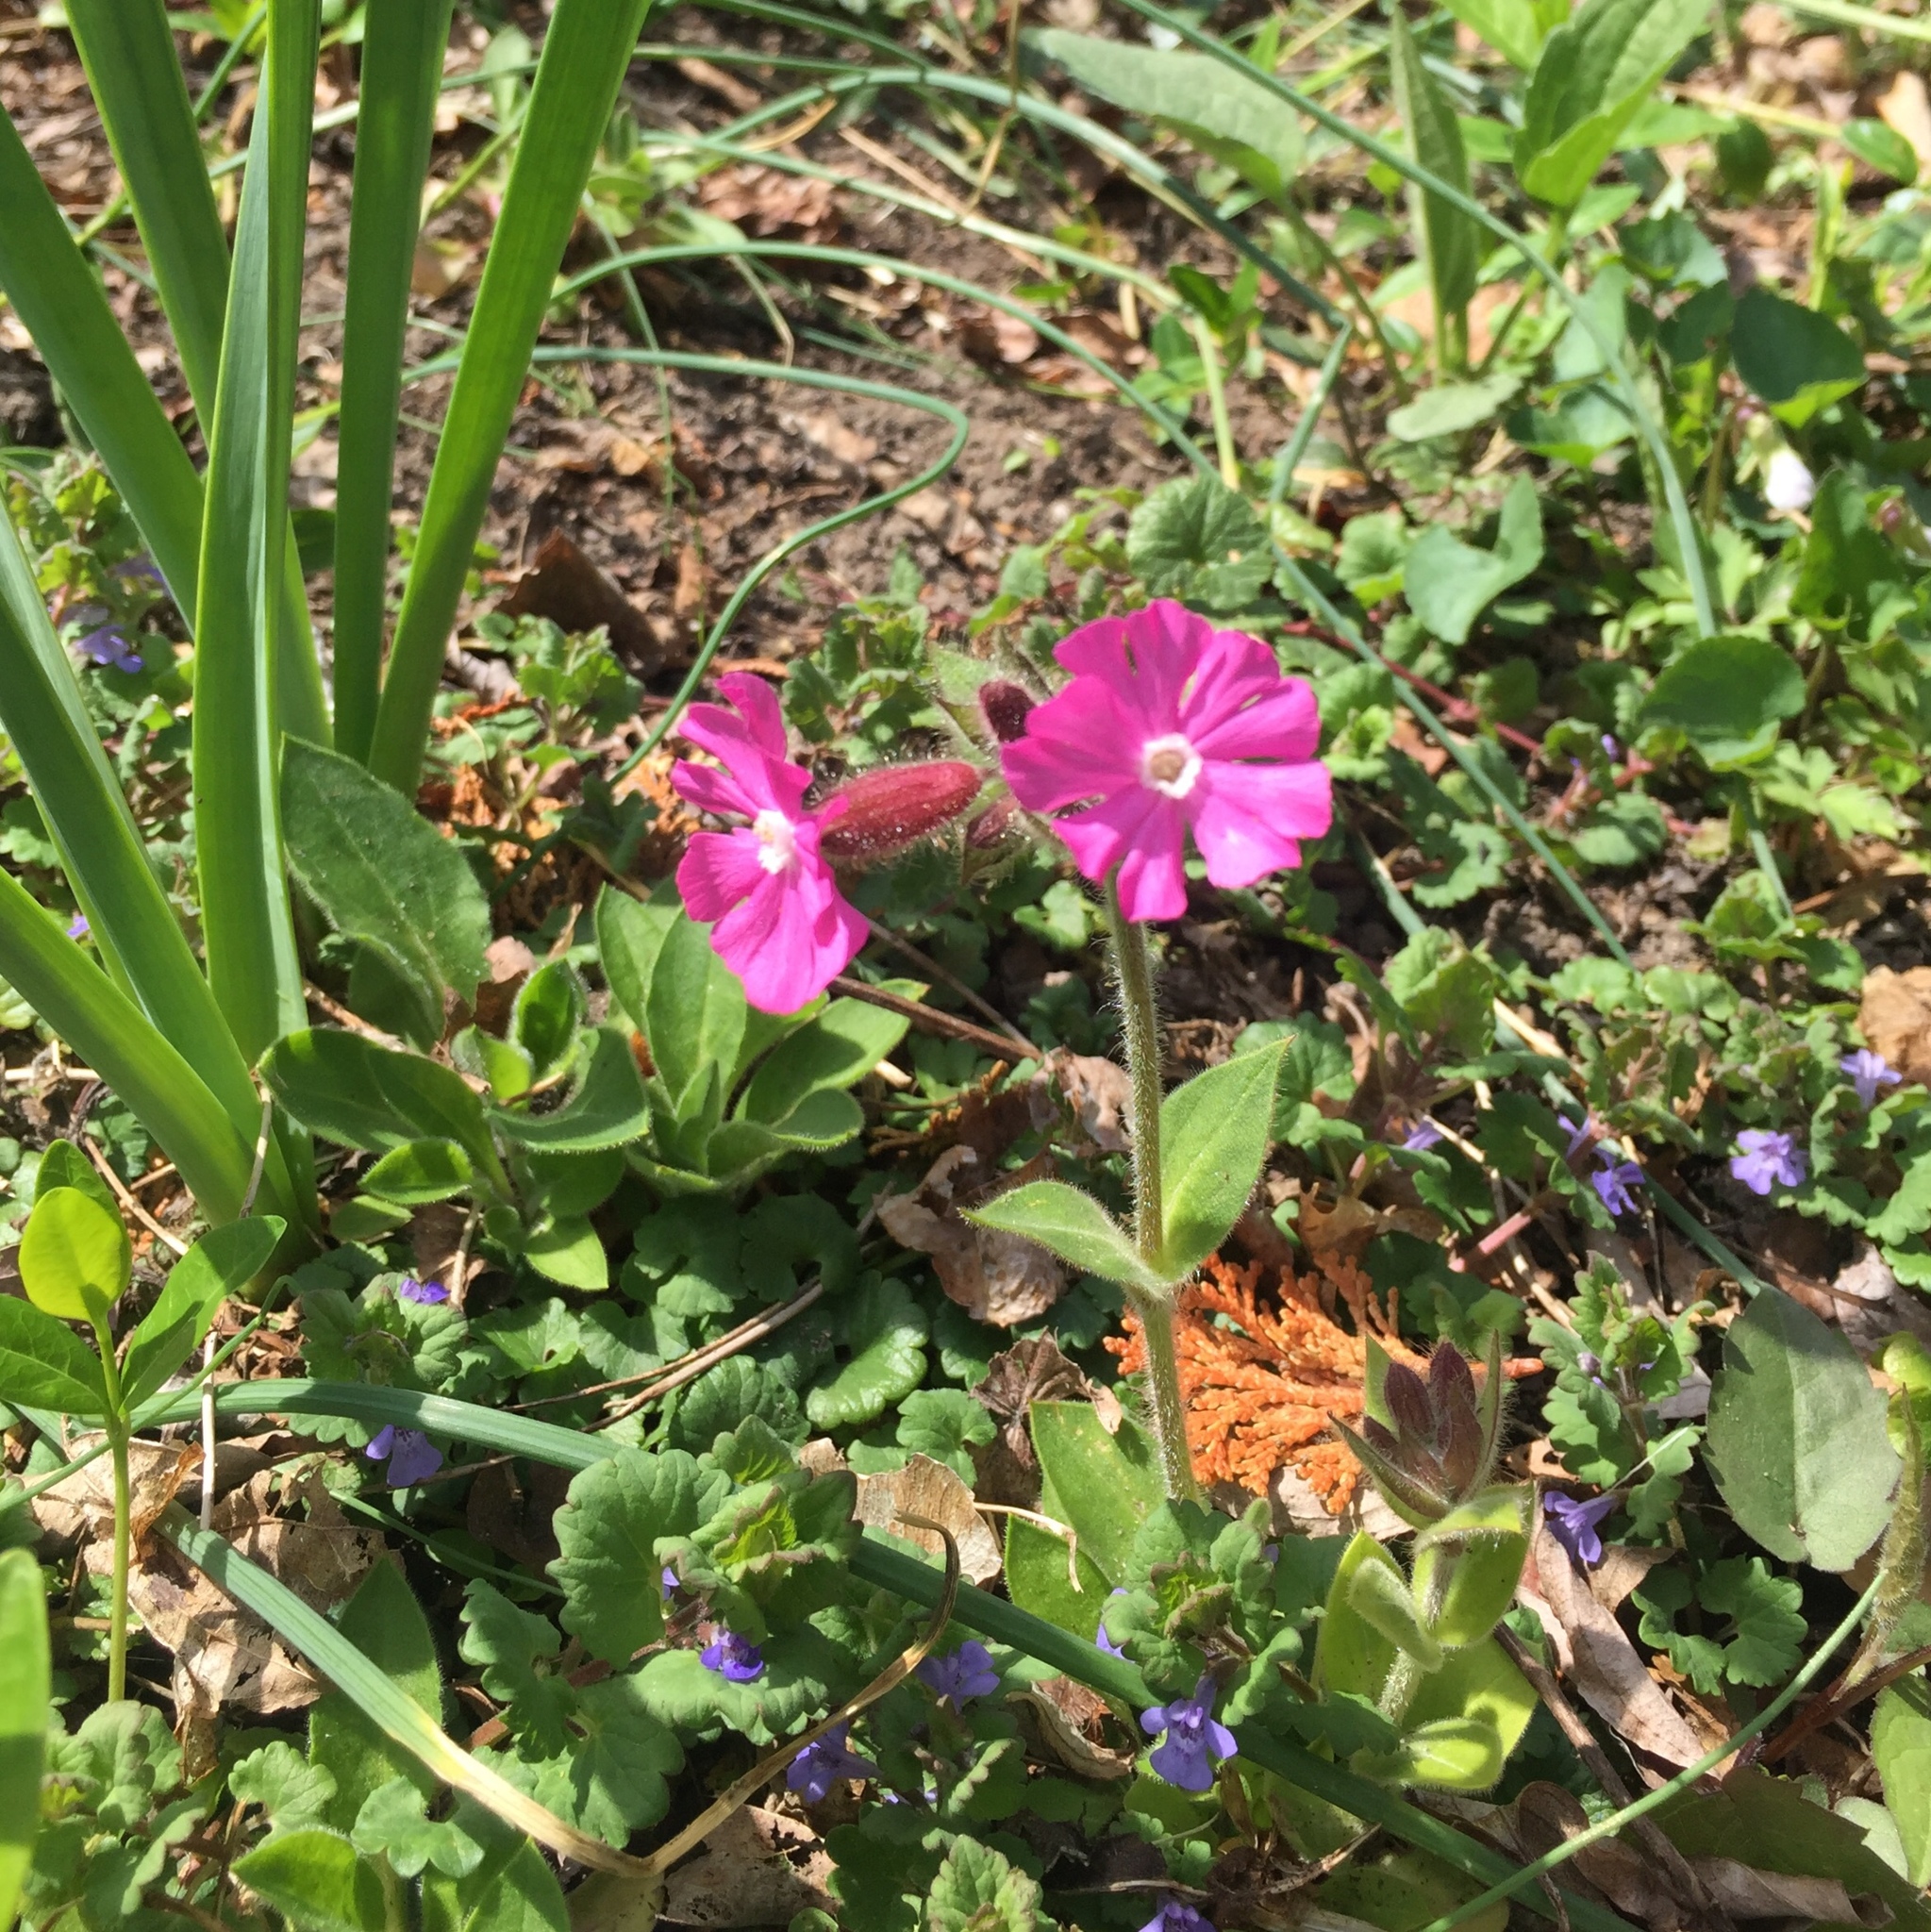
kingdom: Plantae
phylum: Tracheophyta
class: Magnoliopsida
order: Caryophyllales
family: Caryophyllaceae
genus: Silene
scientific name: Silene dioica
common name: Red campion
